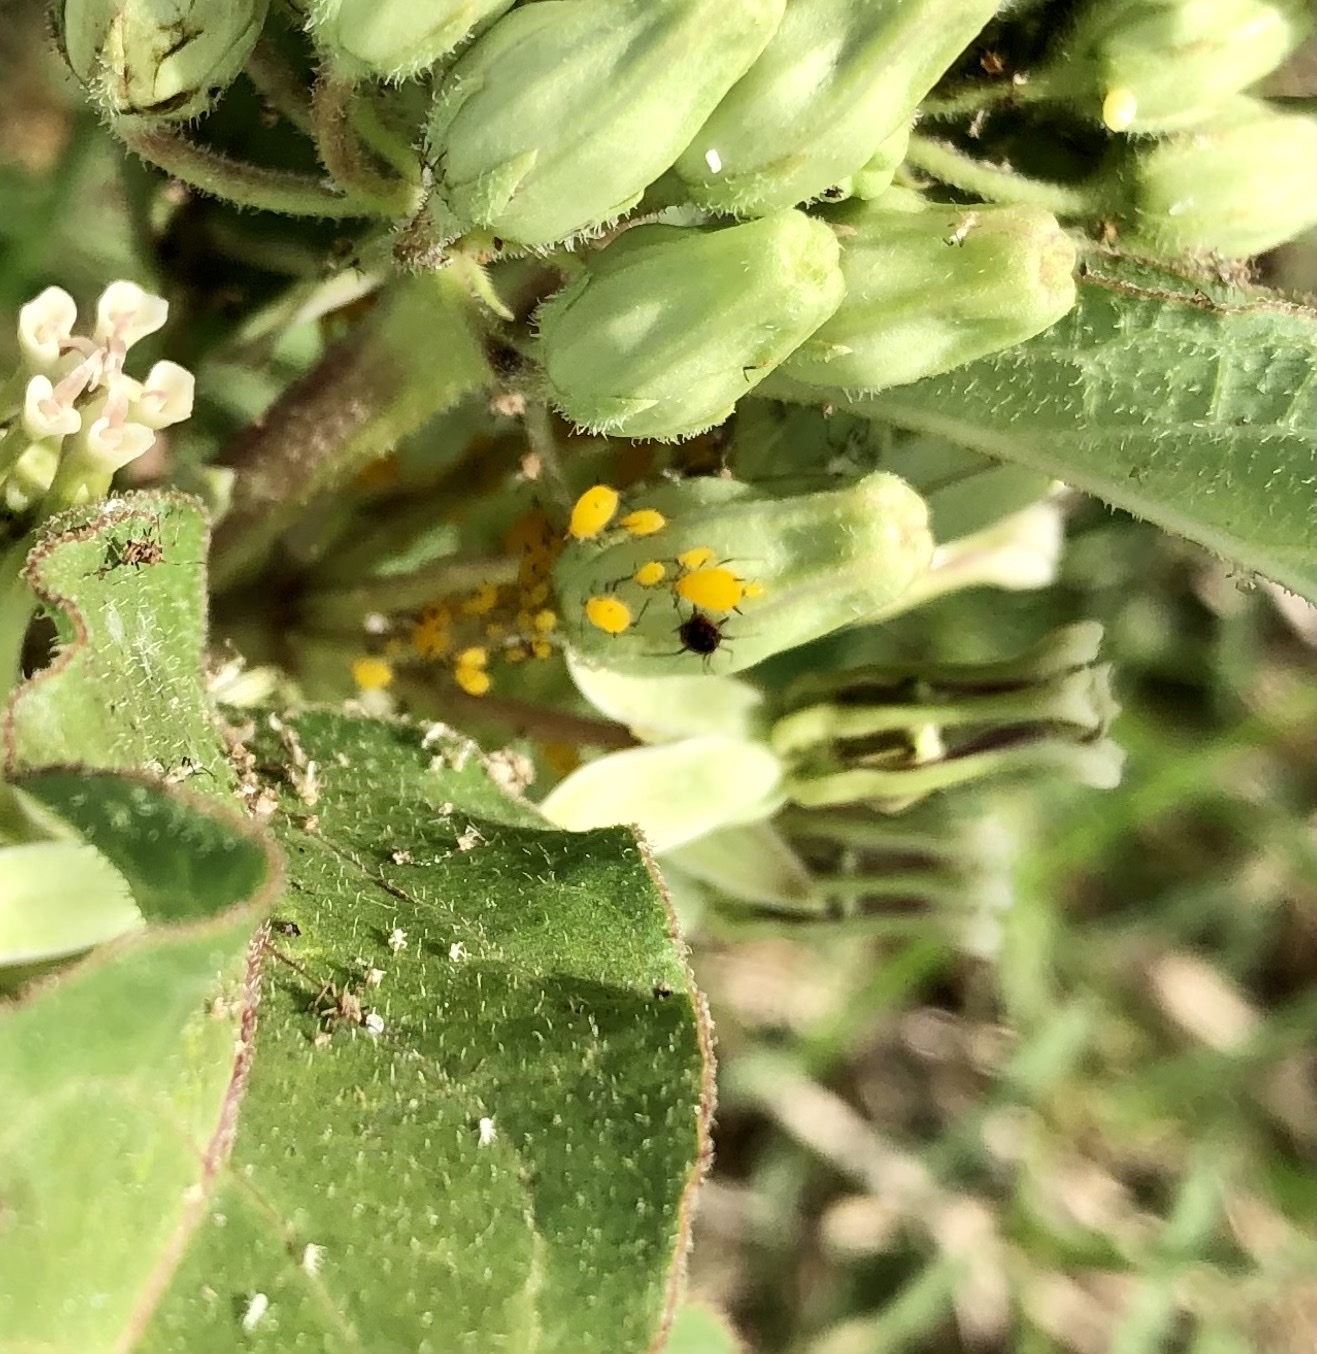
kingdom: Animalia
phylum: Arthropoda
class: Insecta
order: Hemiptera
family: Aphididae
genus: Aphis
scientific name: Aphis nerii
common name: Oleander aphid
